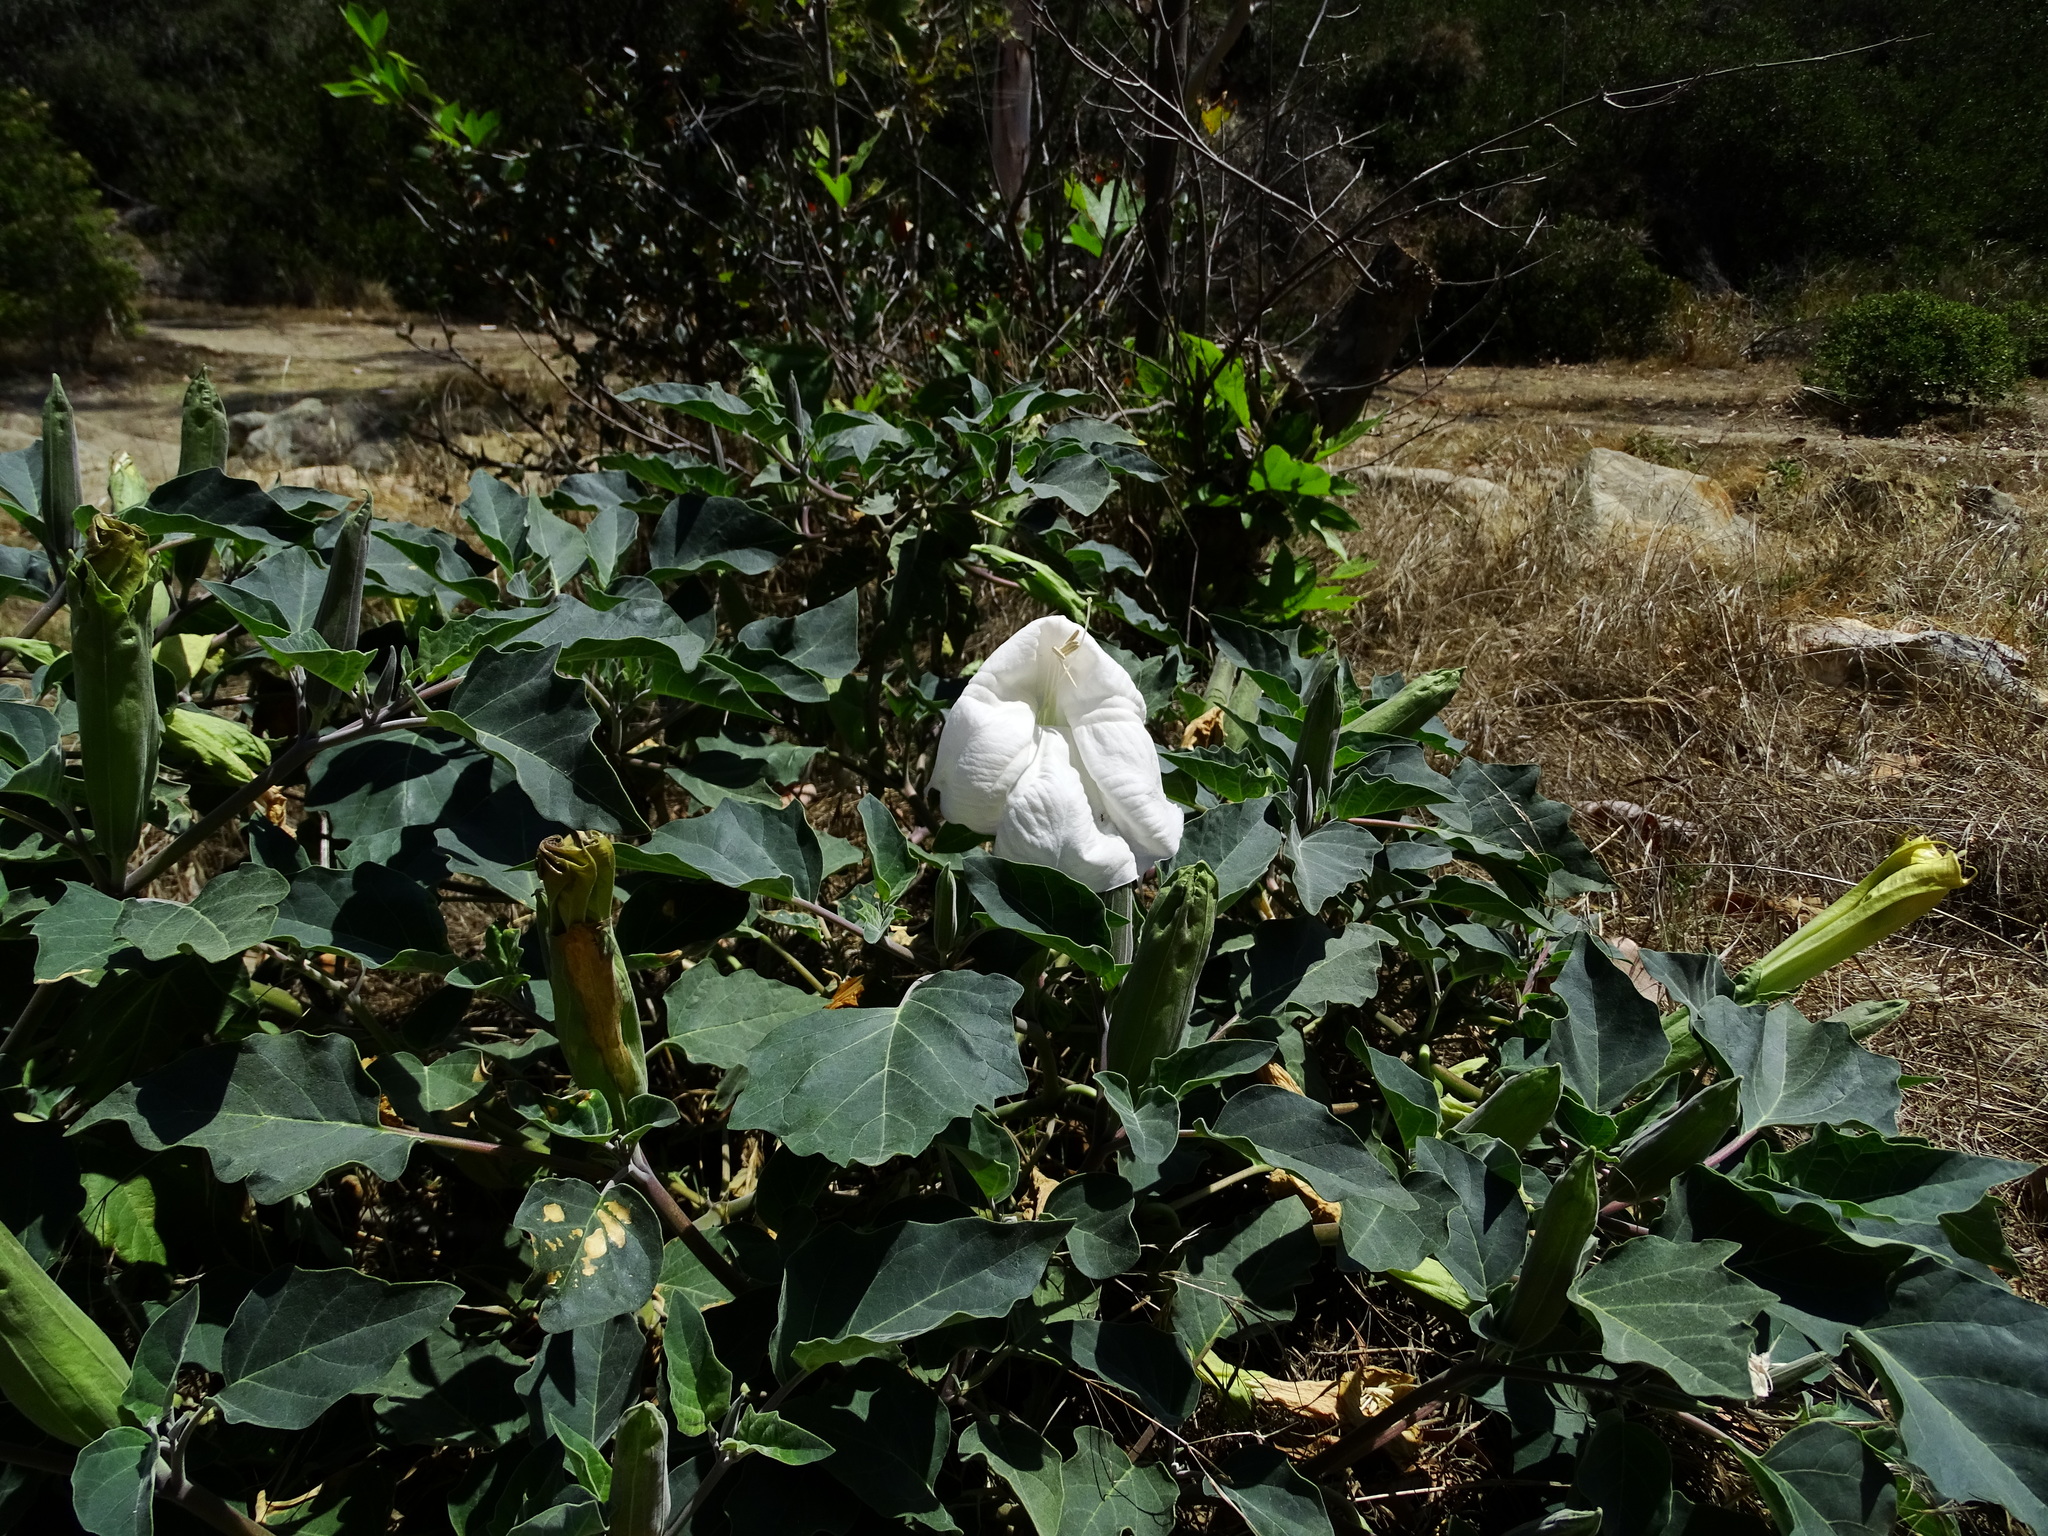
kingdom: Plantae
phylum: Tracheophyta
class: Magnoliopsida
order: Solanales
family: Solanaceae
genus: Datura
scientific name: Datura wrightii
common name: Sacred thorn-apple
